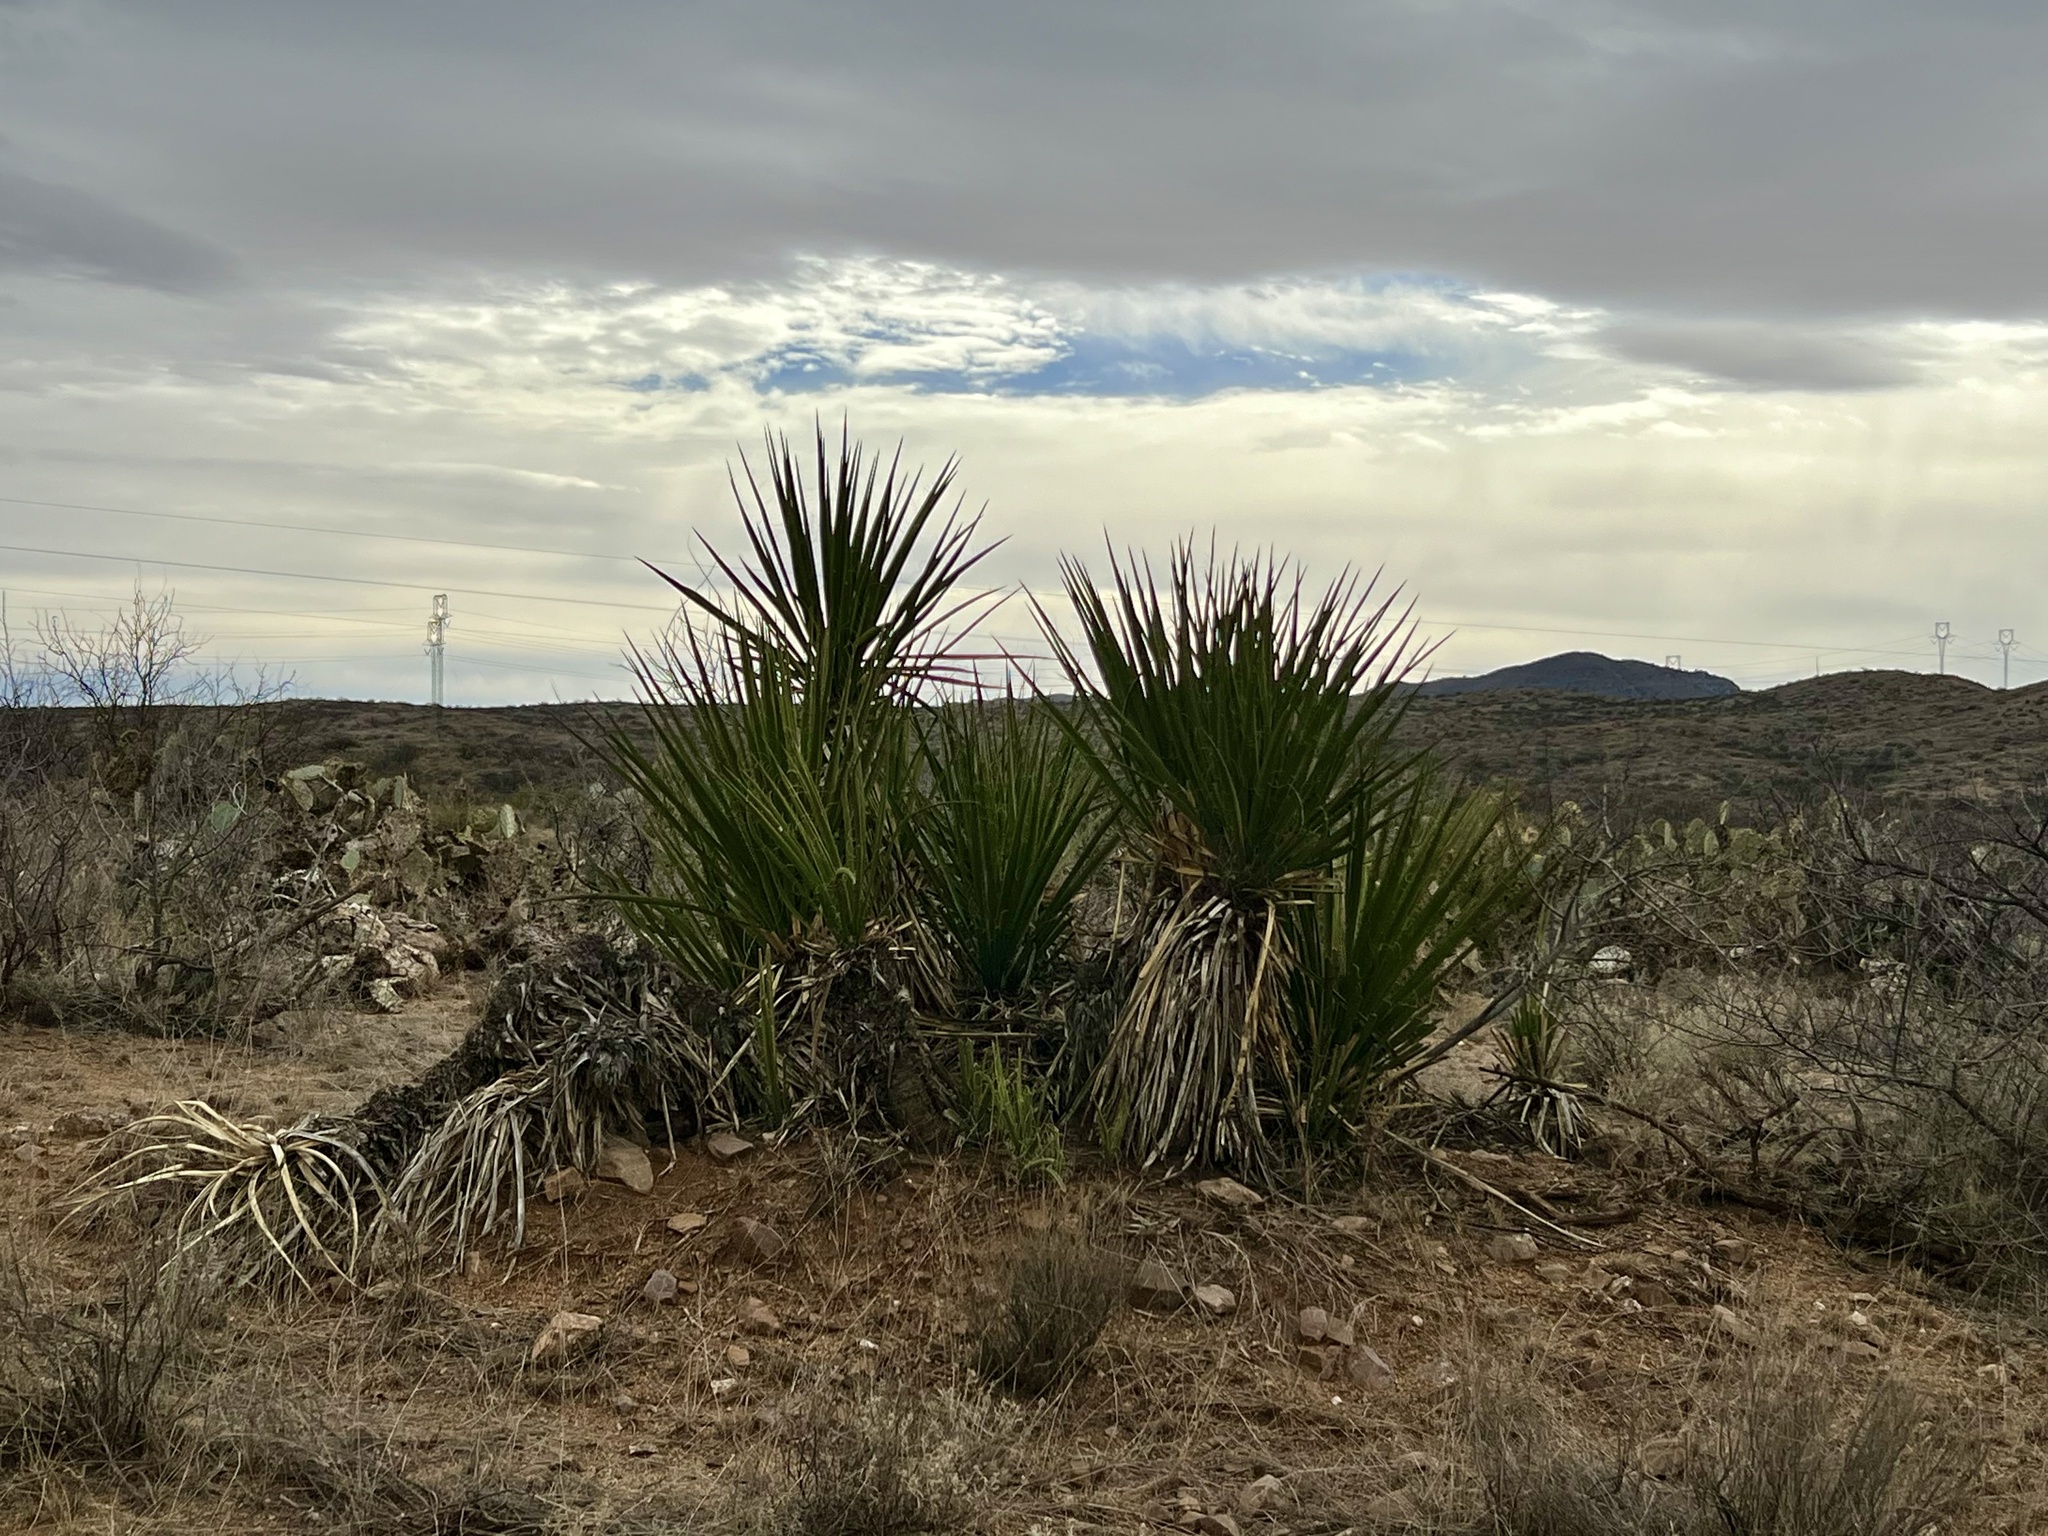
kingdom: Plantae
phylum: Tracheophyta
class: Liliopsida
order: Asparagales
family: Asparagaceae
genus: Yucca
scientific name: Yucca baccata
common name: Banana yucca
